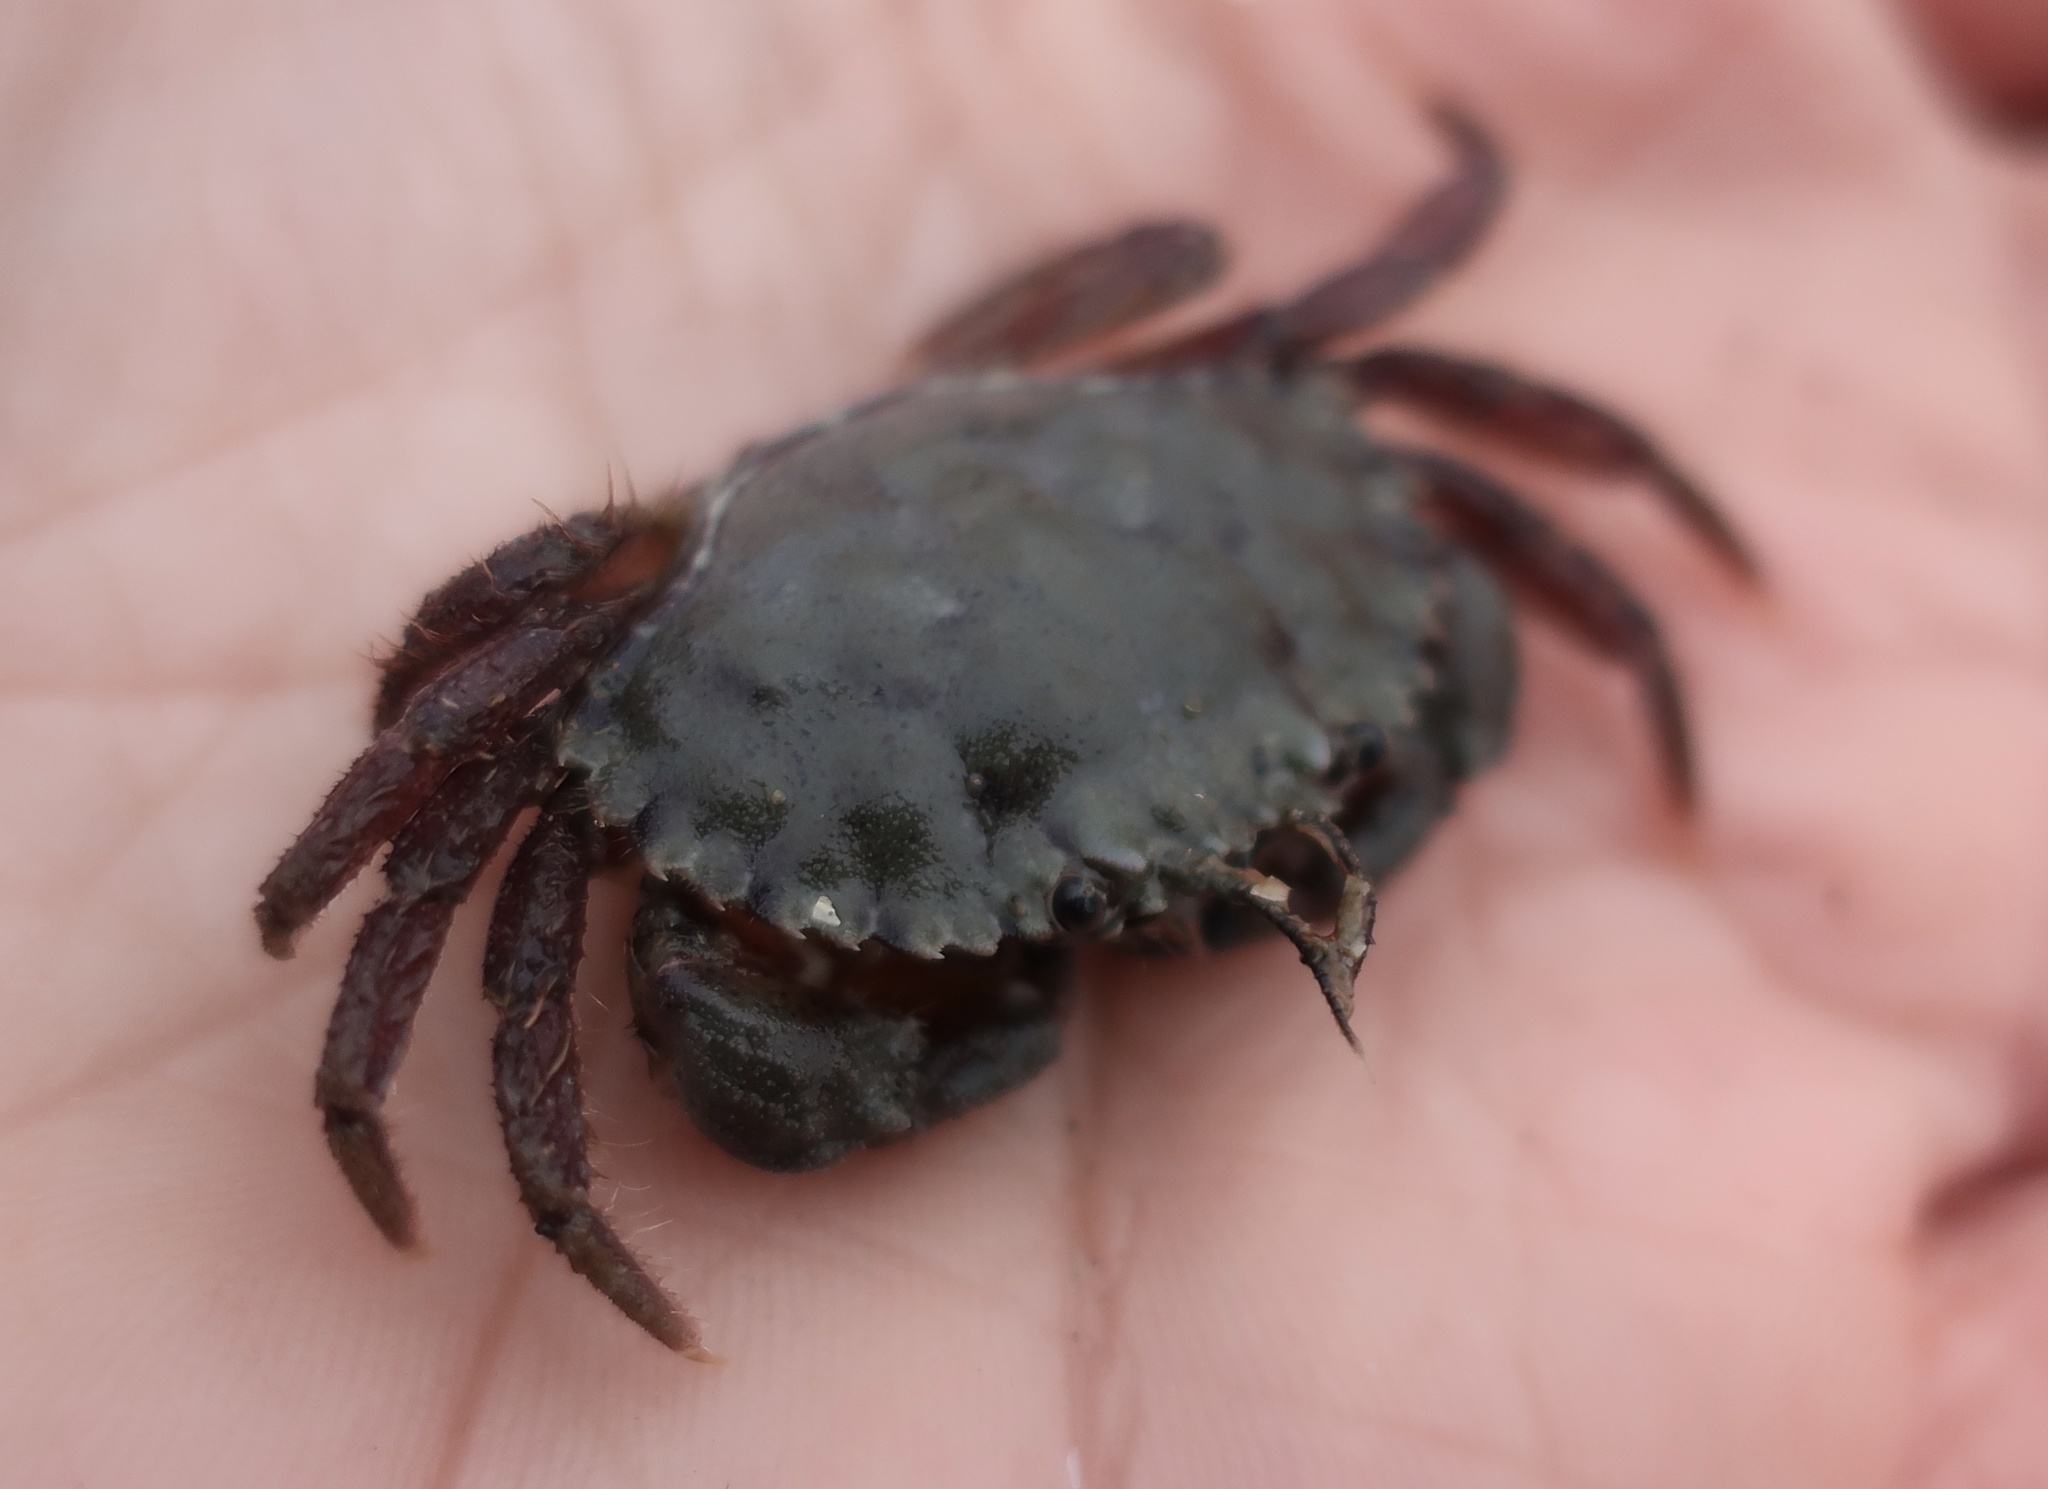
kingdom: Animalia
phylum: Arthropoda
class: Malacostraca
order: Decapoda
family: Cancridae
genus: Romaleon
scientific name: Romaleon antennarium
